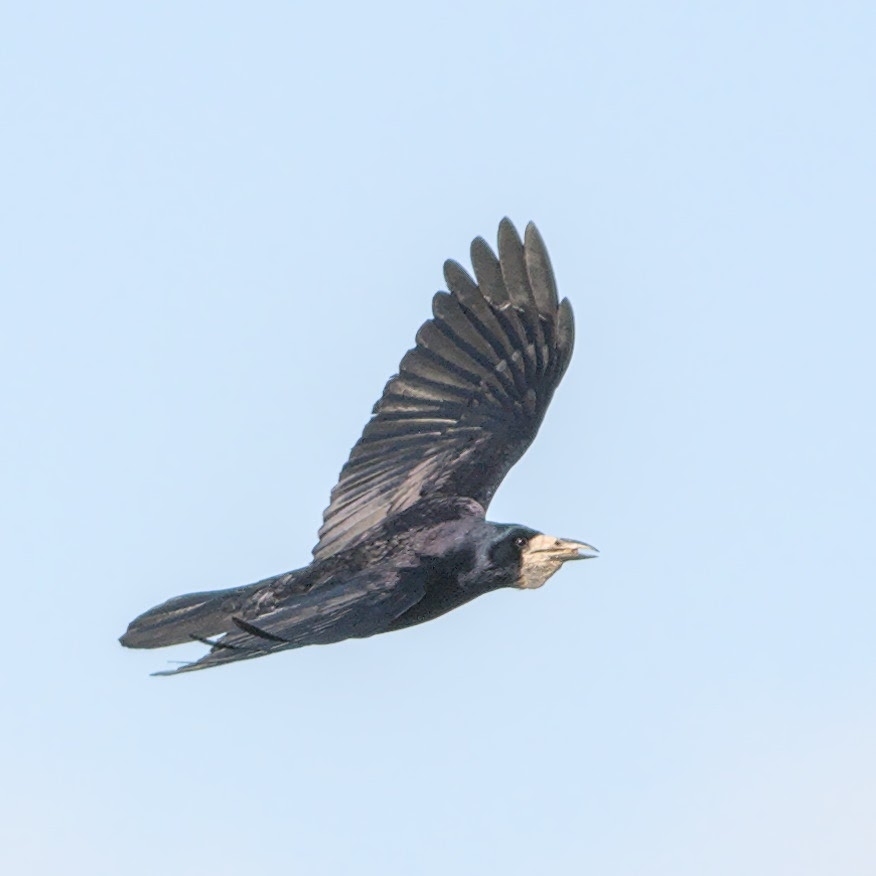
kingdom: Animalia
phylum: Chordata
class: Aves
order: Passeriformes
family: Corvidae
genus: Corvus
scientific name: Corvus frugilegus
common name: Rook
